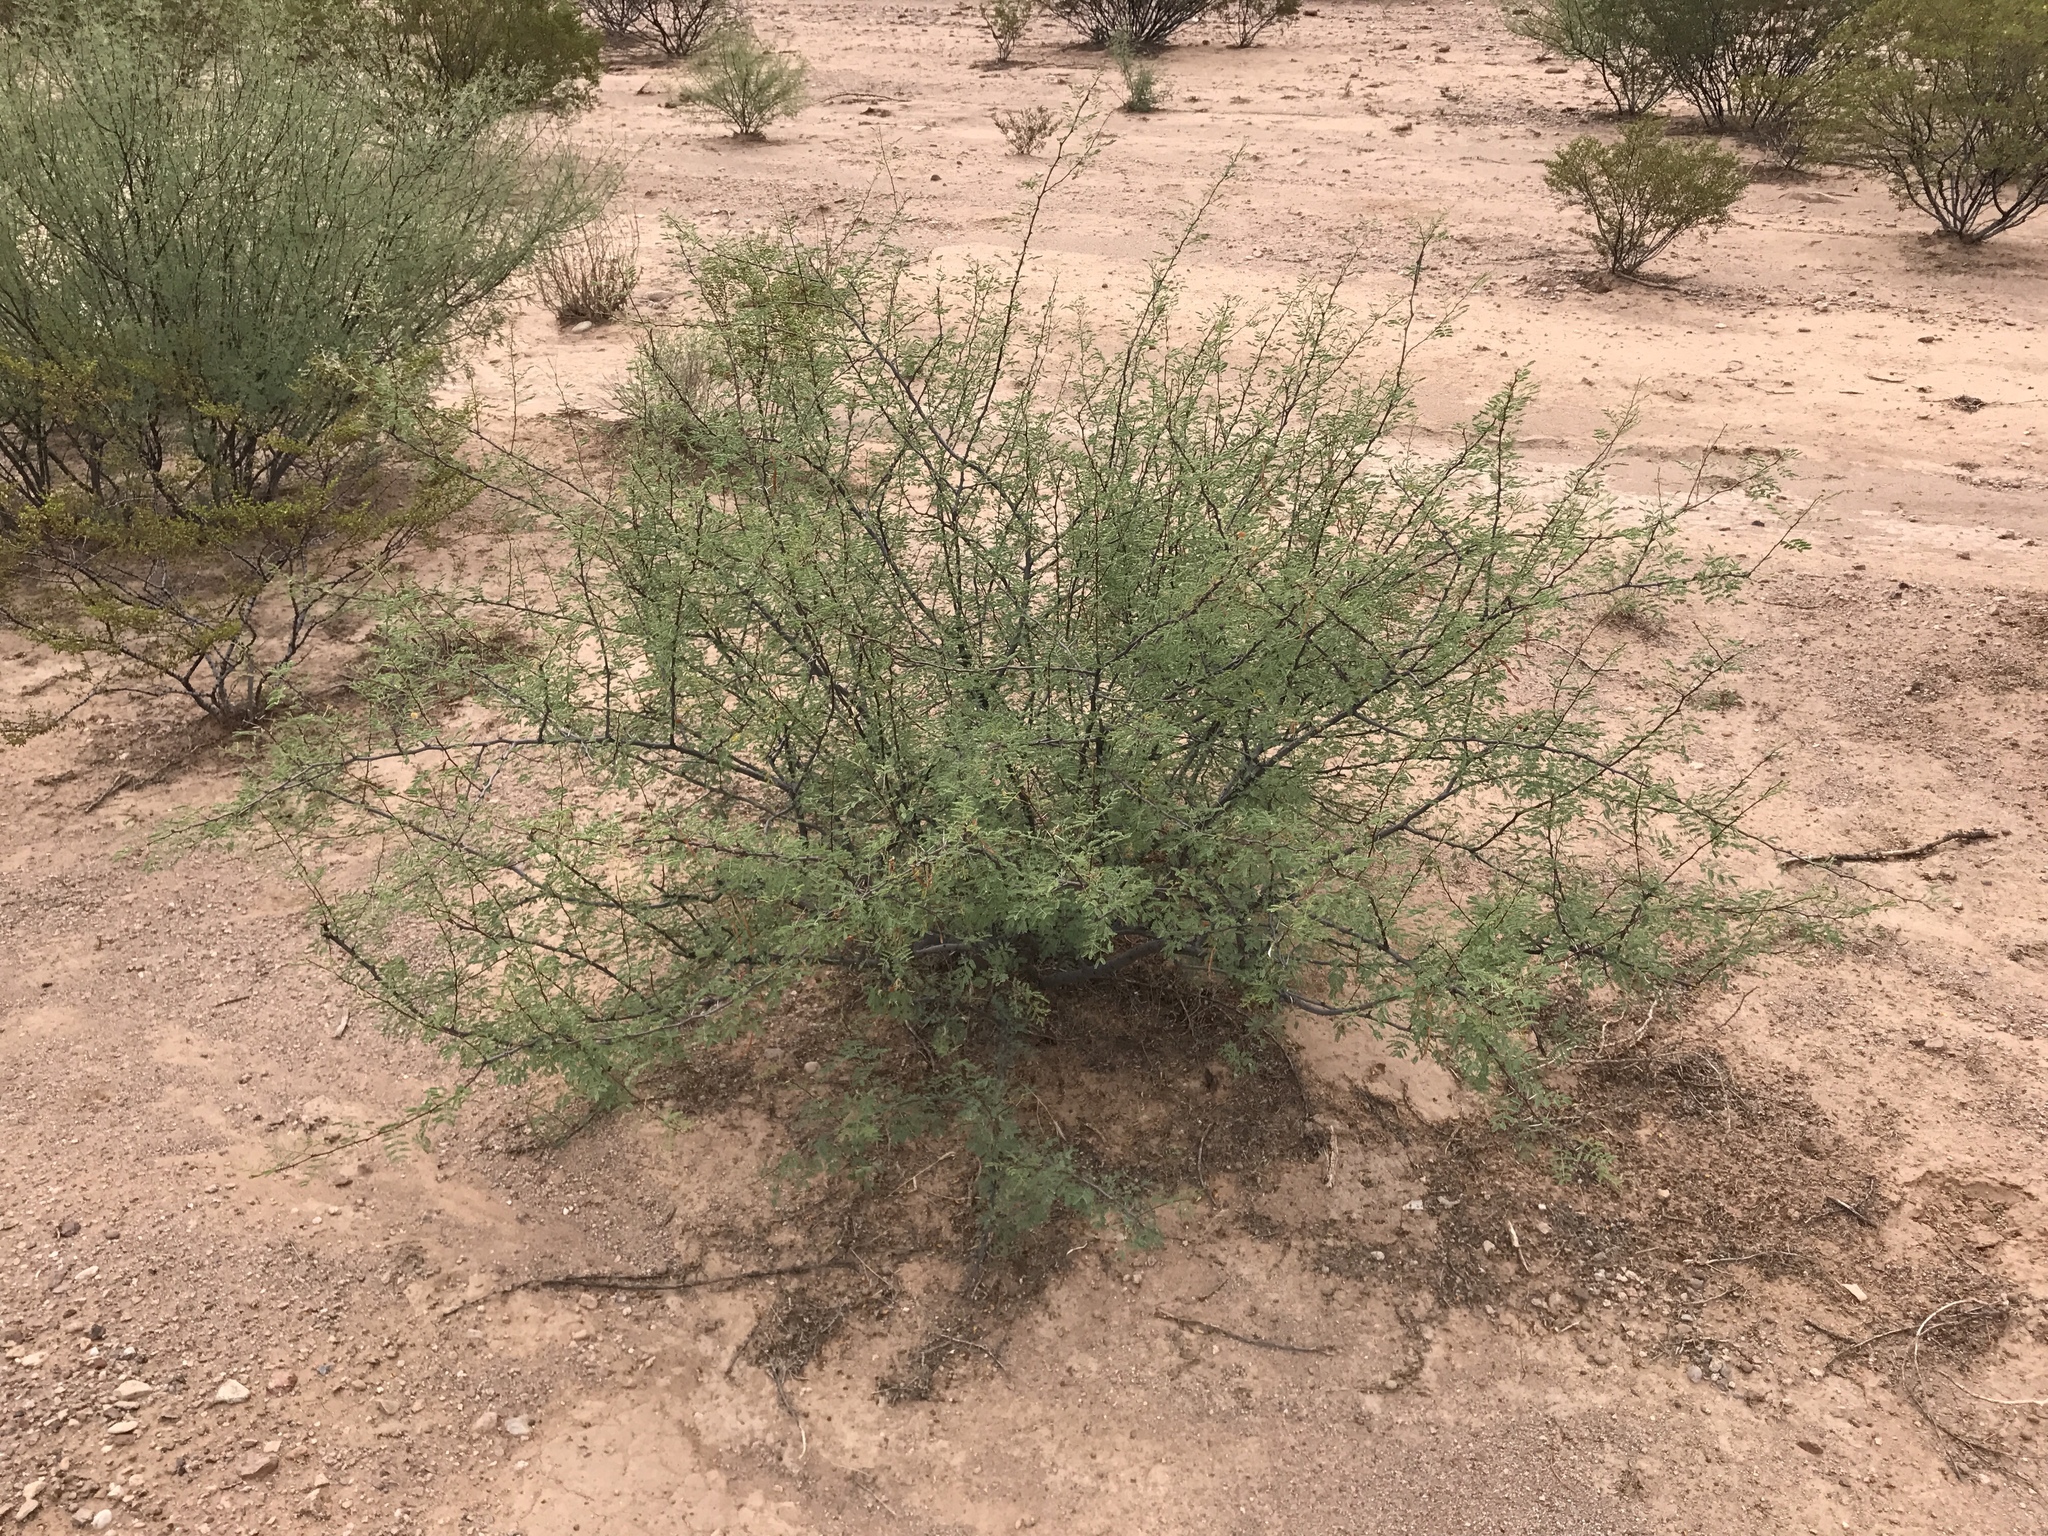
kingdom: Plantae
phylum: Tracheophyta
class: Magnoliopsida
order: Fabales
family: Fabaceae
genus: Vachellia
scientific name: Vachellia constricta
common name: Mescat acacia
